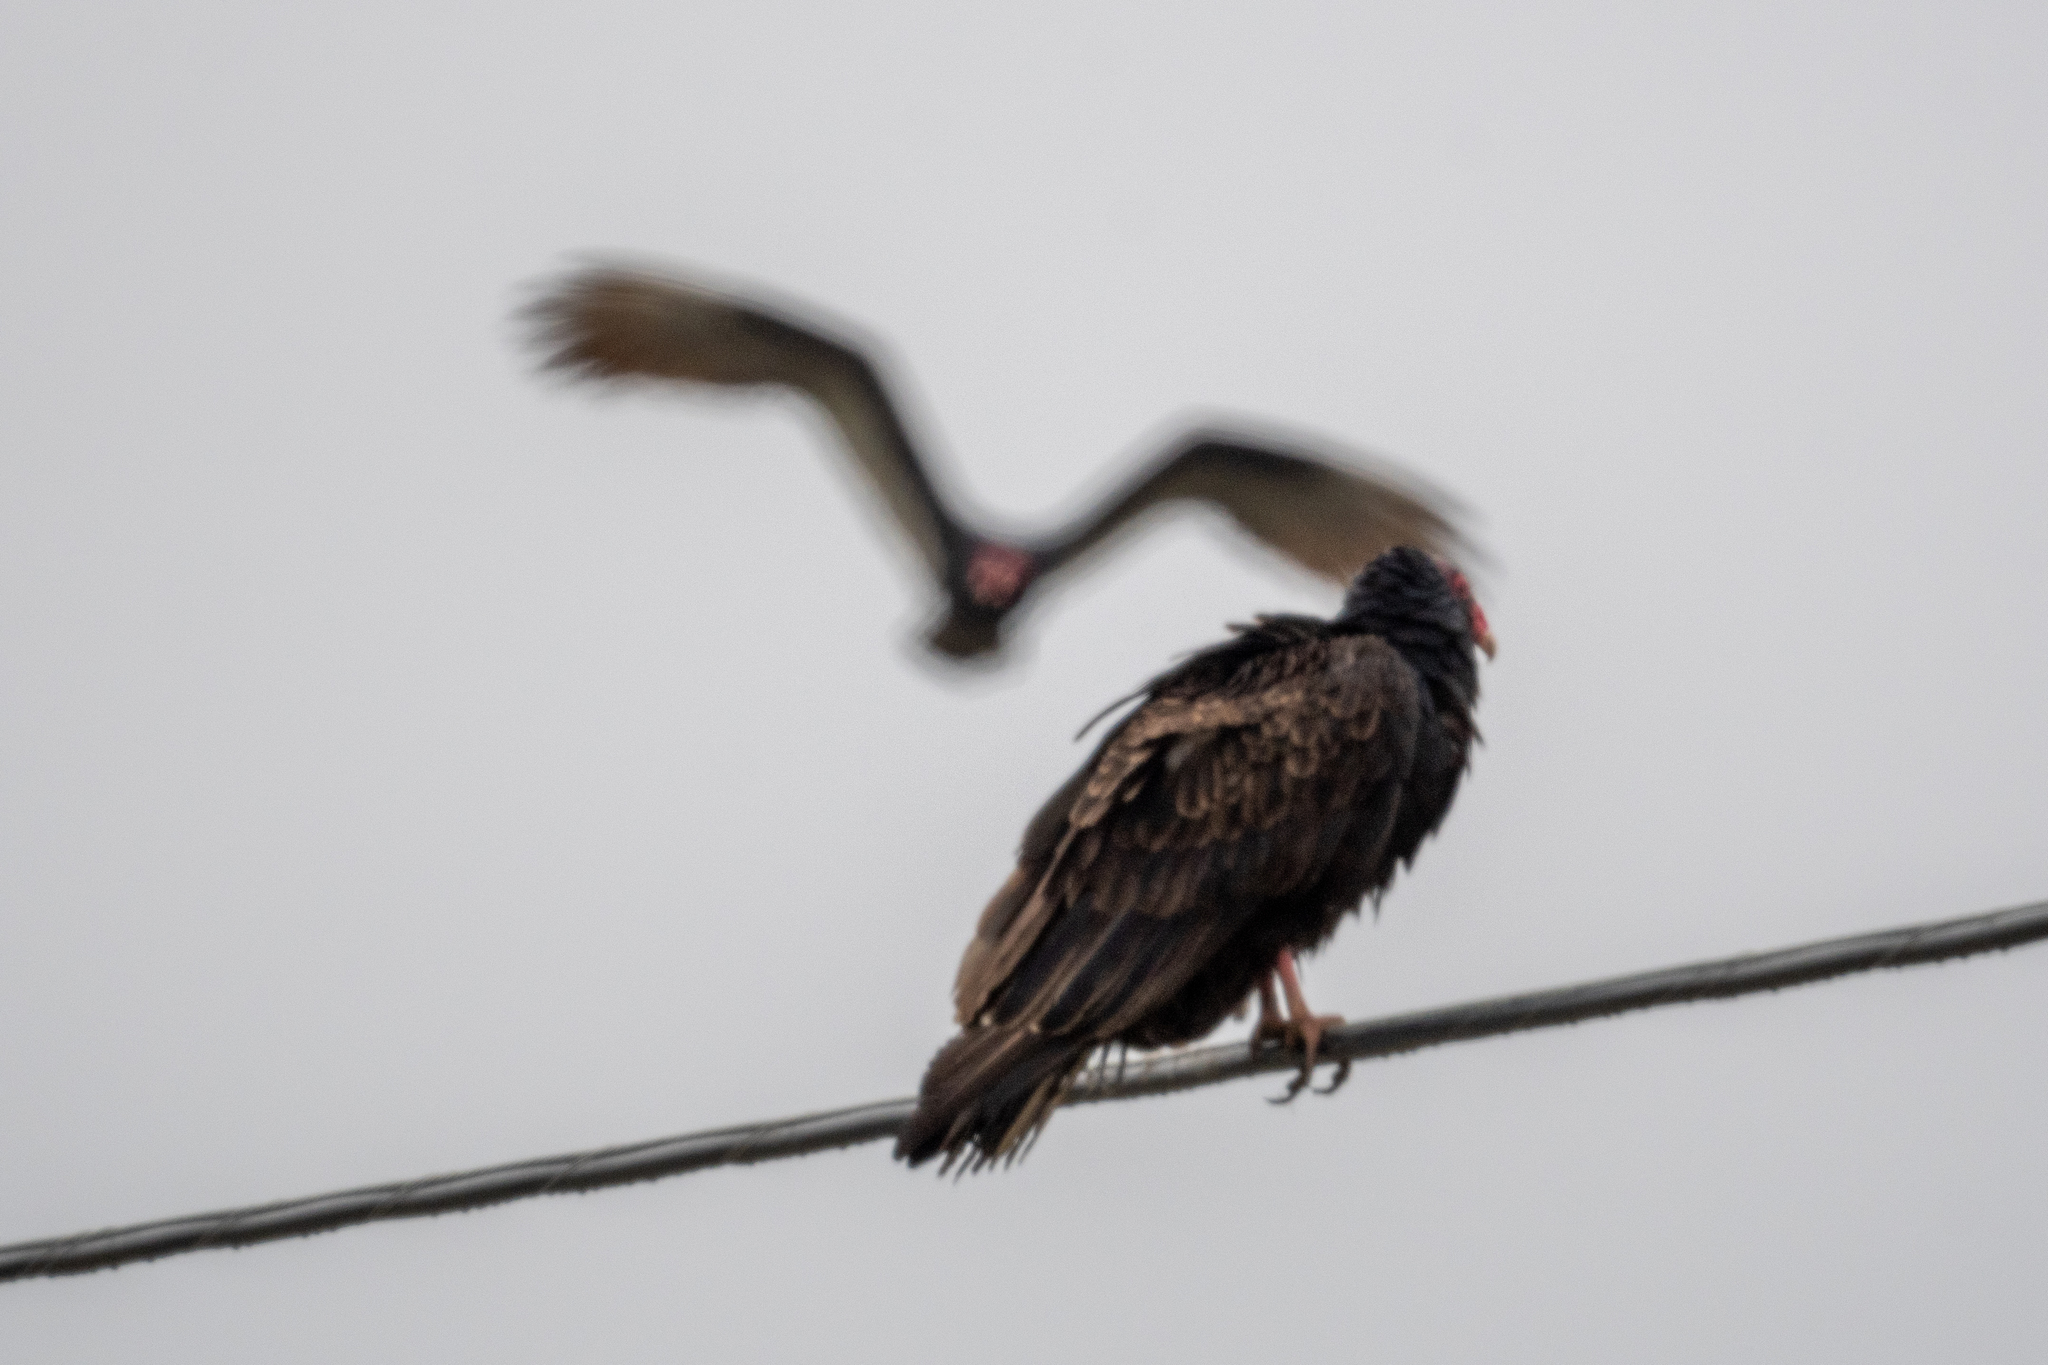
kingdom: Animalia
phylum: Chordata
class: Aves
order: Accipitriformes
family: Cathartidae
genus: Cathartes
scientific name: Cathartes aura
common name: Turkey vulture
